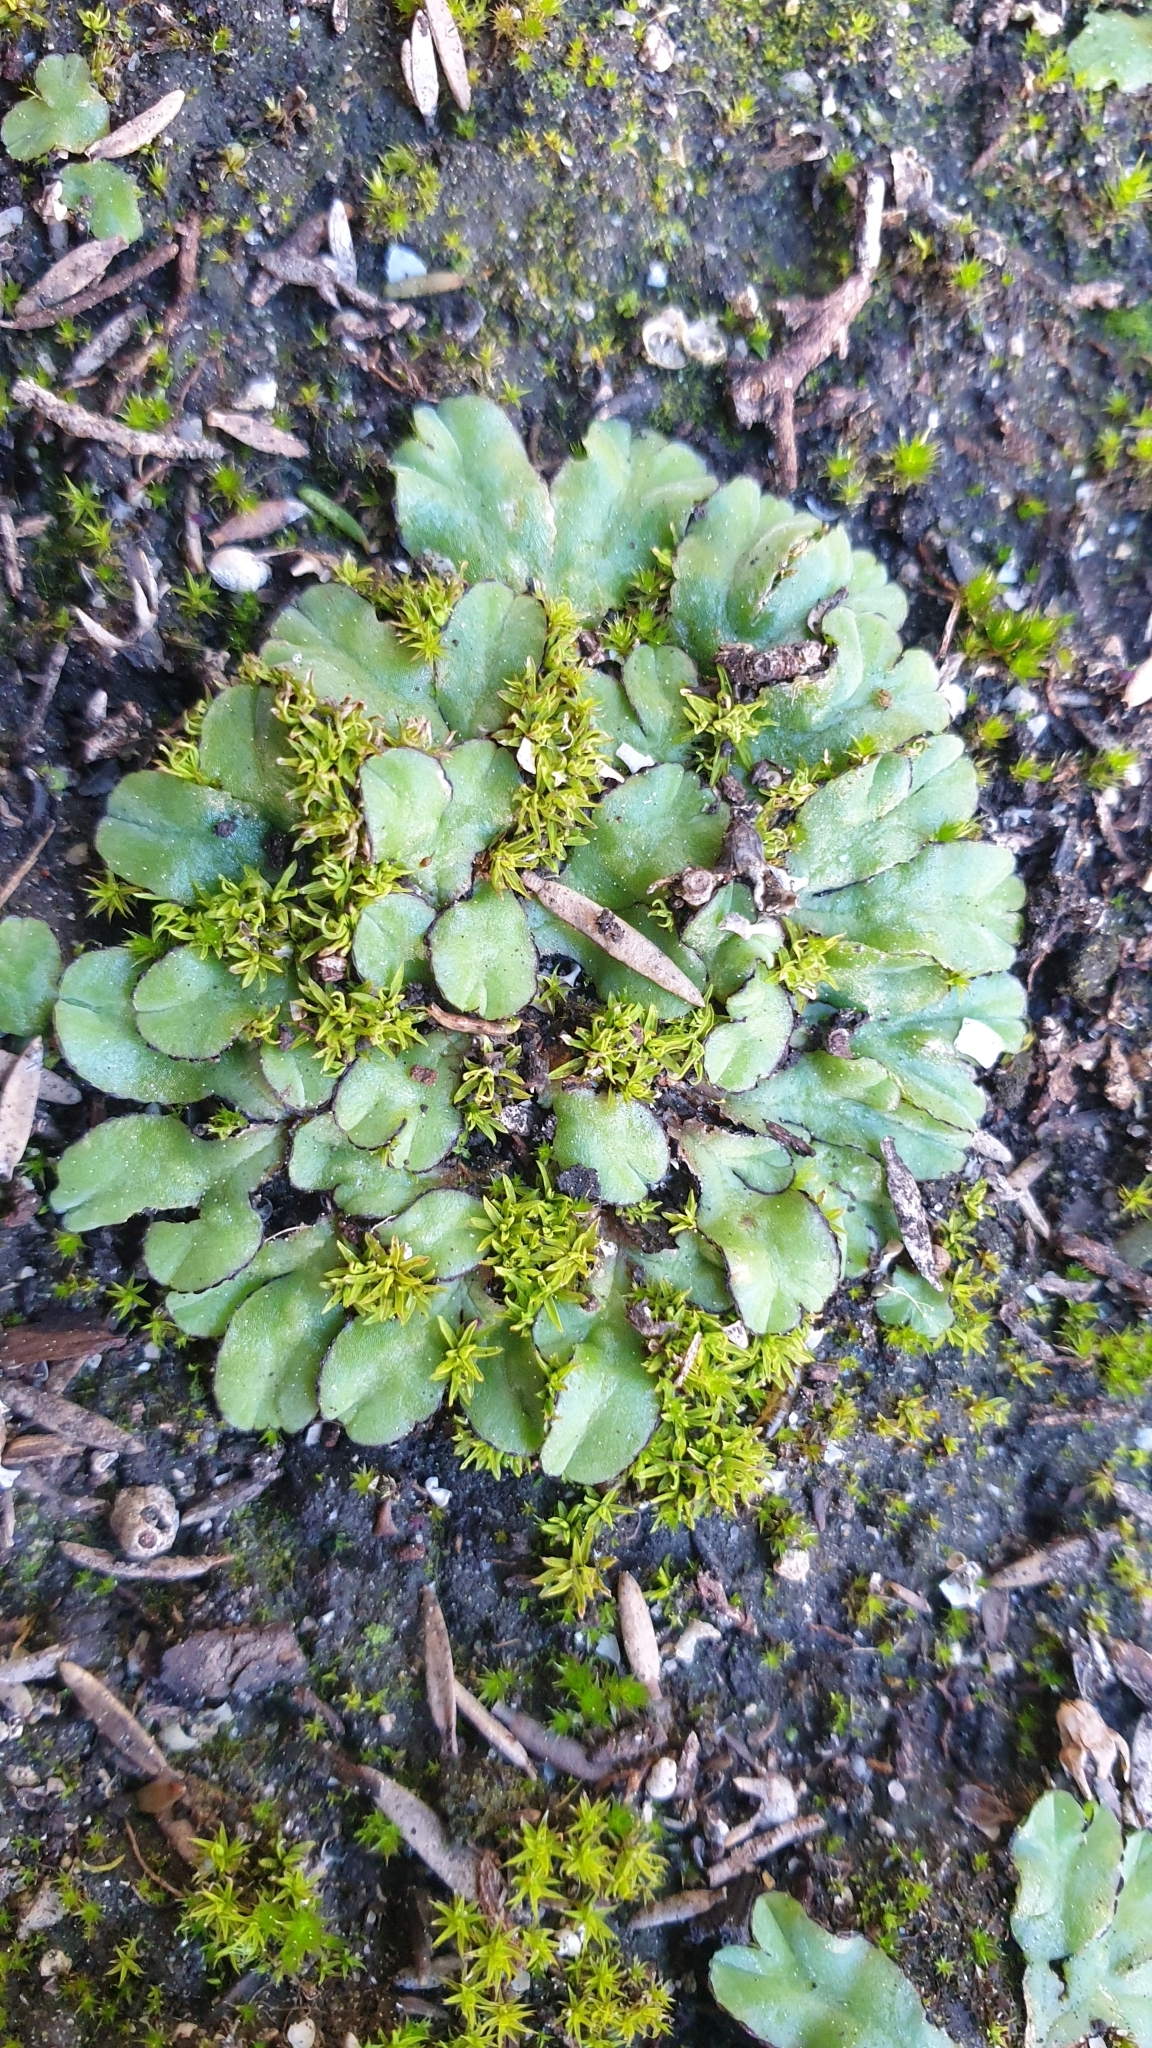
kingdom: Plantae
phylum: Marchantiophyta
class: Marchantiopsida
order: Marchantiales
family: Ricciaceae
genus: Riccia
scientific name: Riccia inflexa
